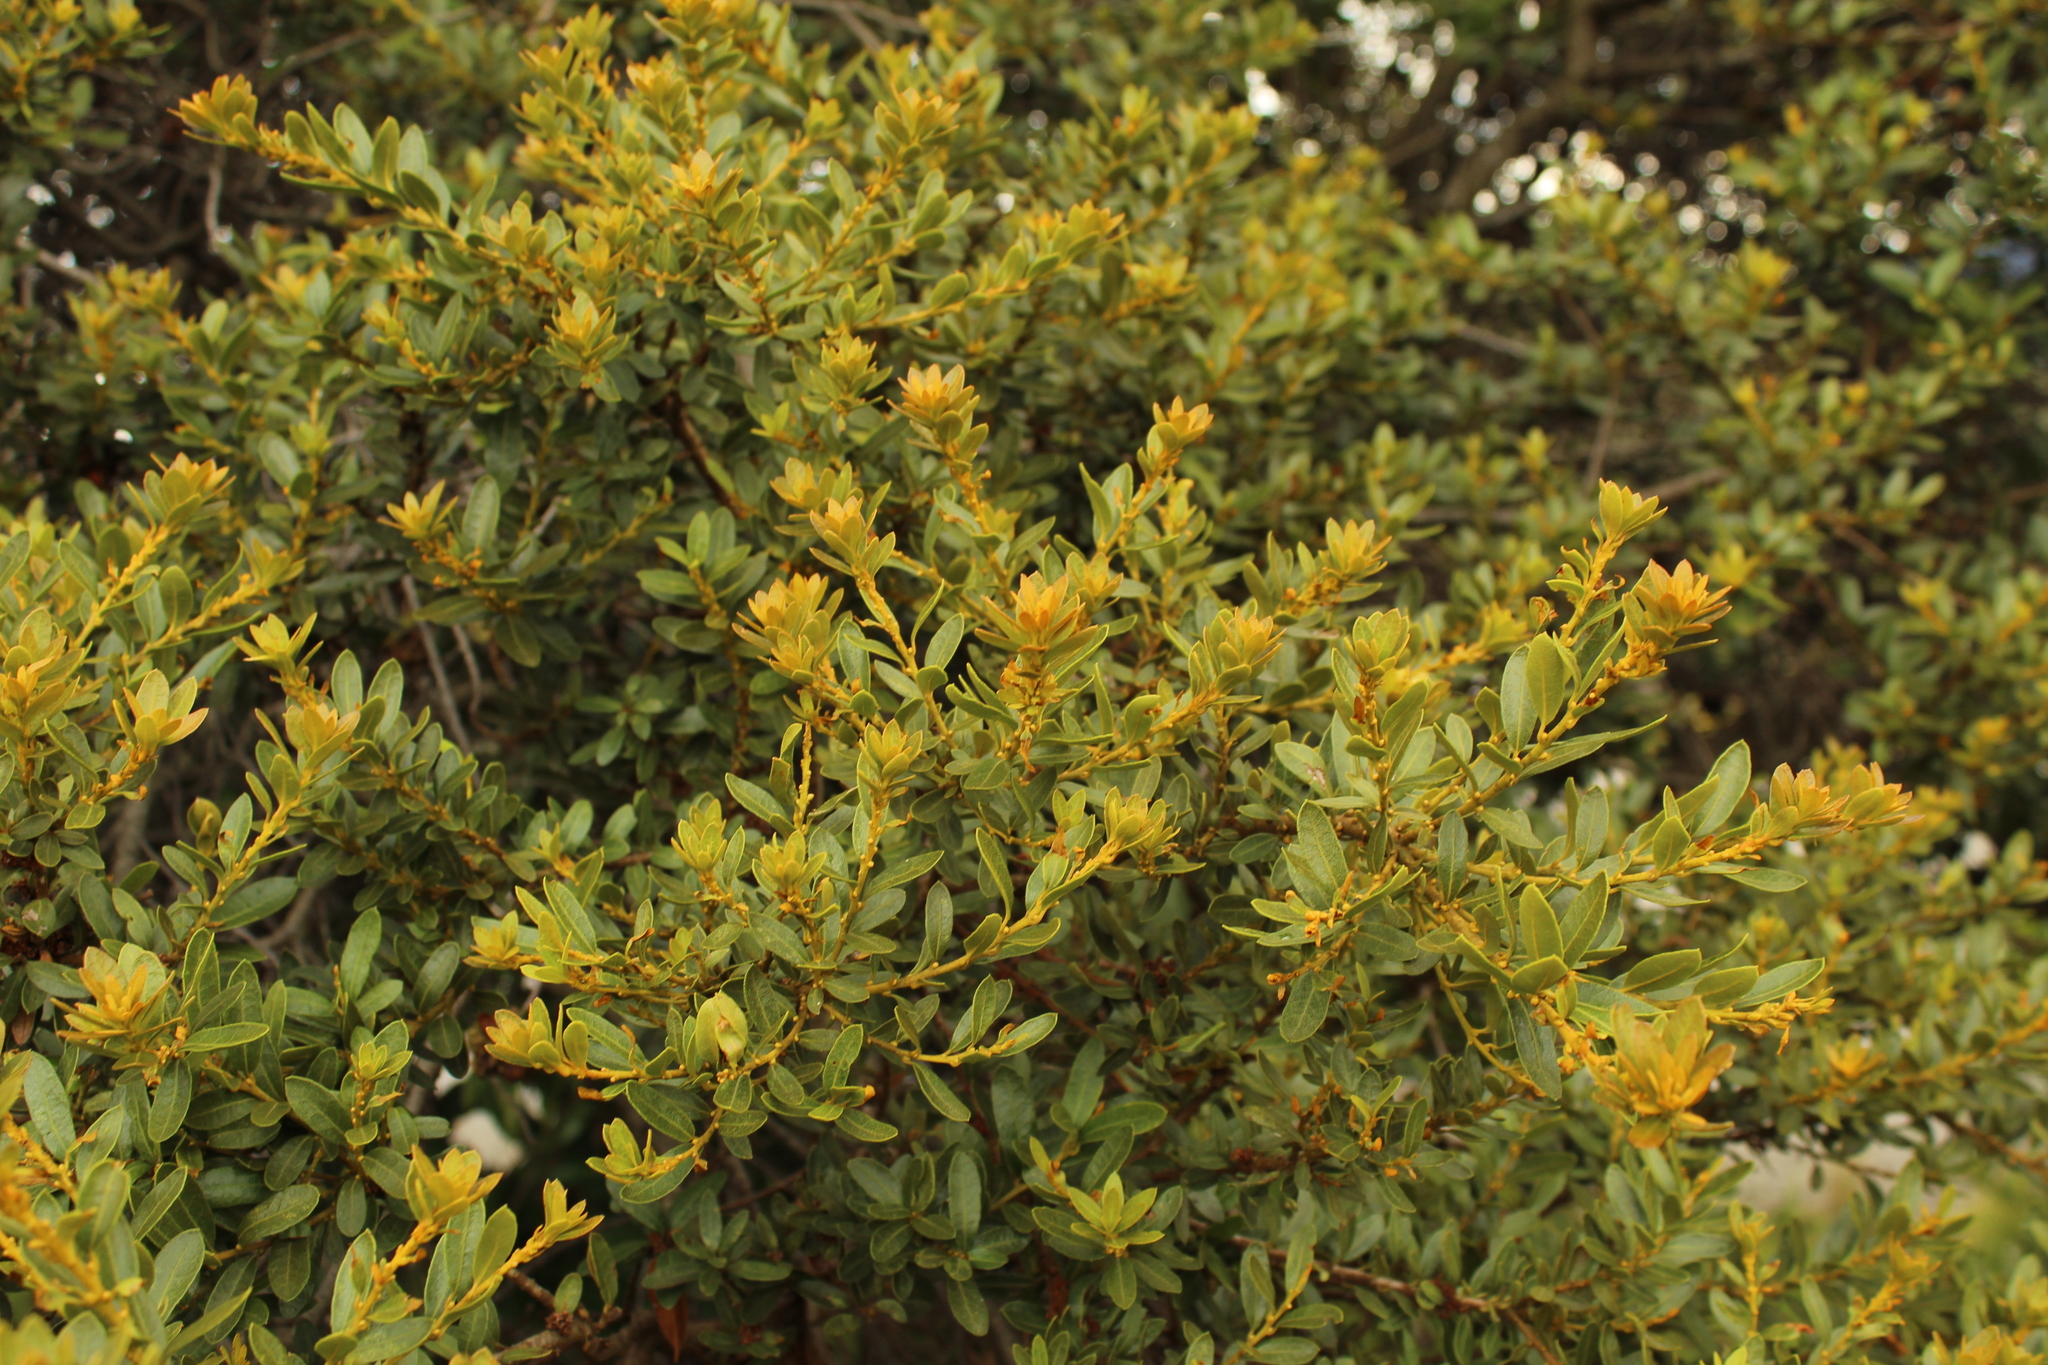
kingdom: Plantae
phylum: Tracheophyta
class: Magnoliopsida
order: Fagales
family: Myricaceae
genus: Morella
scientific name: Morella parvifolia
